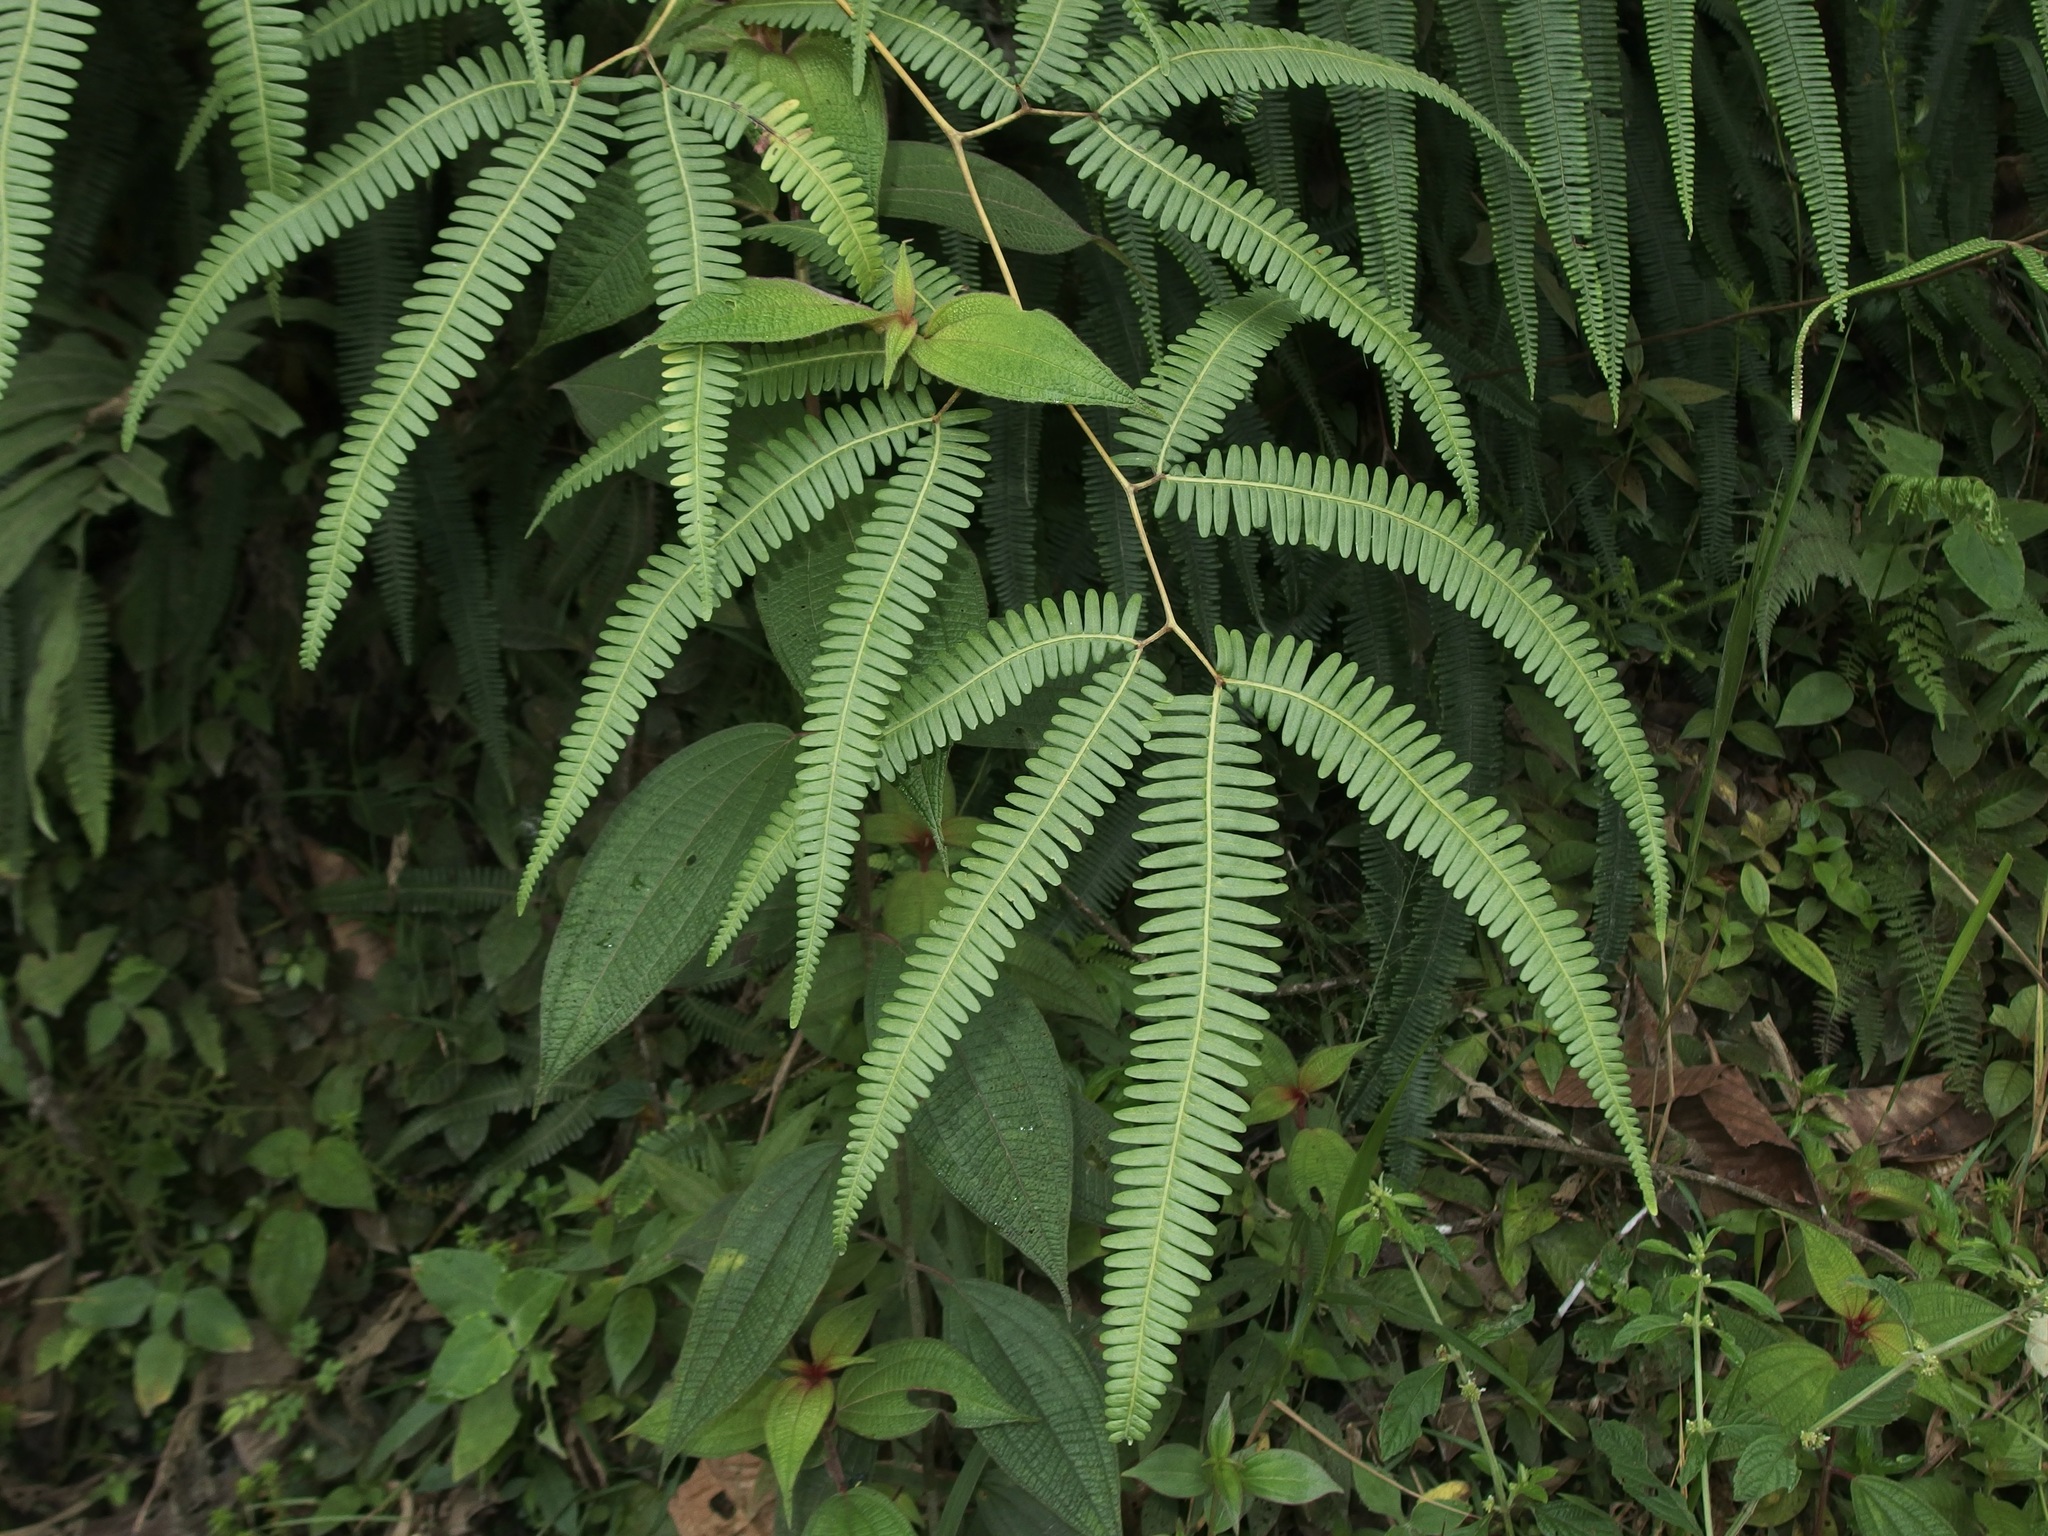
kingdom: Plantae
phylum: Tracheophyta
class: Polypodiopsida
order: Gleicheniales
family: Gleicheniaceae
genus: Gleichenella
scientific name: Gleichenella pectinata
